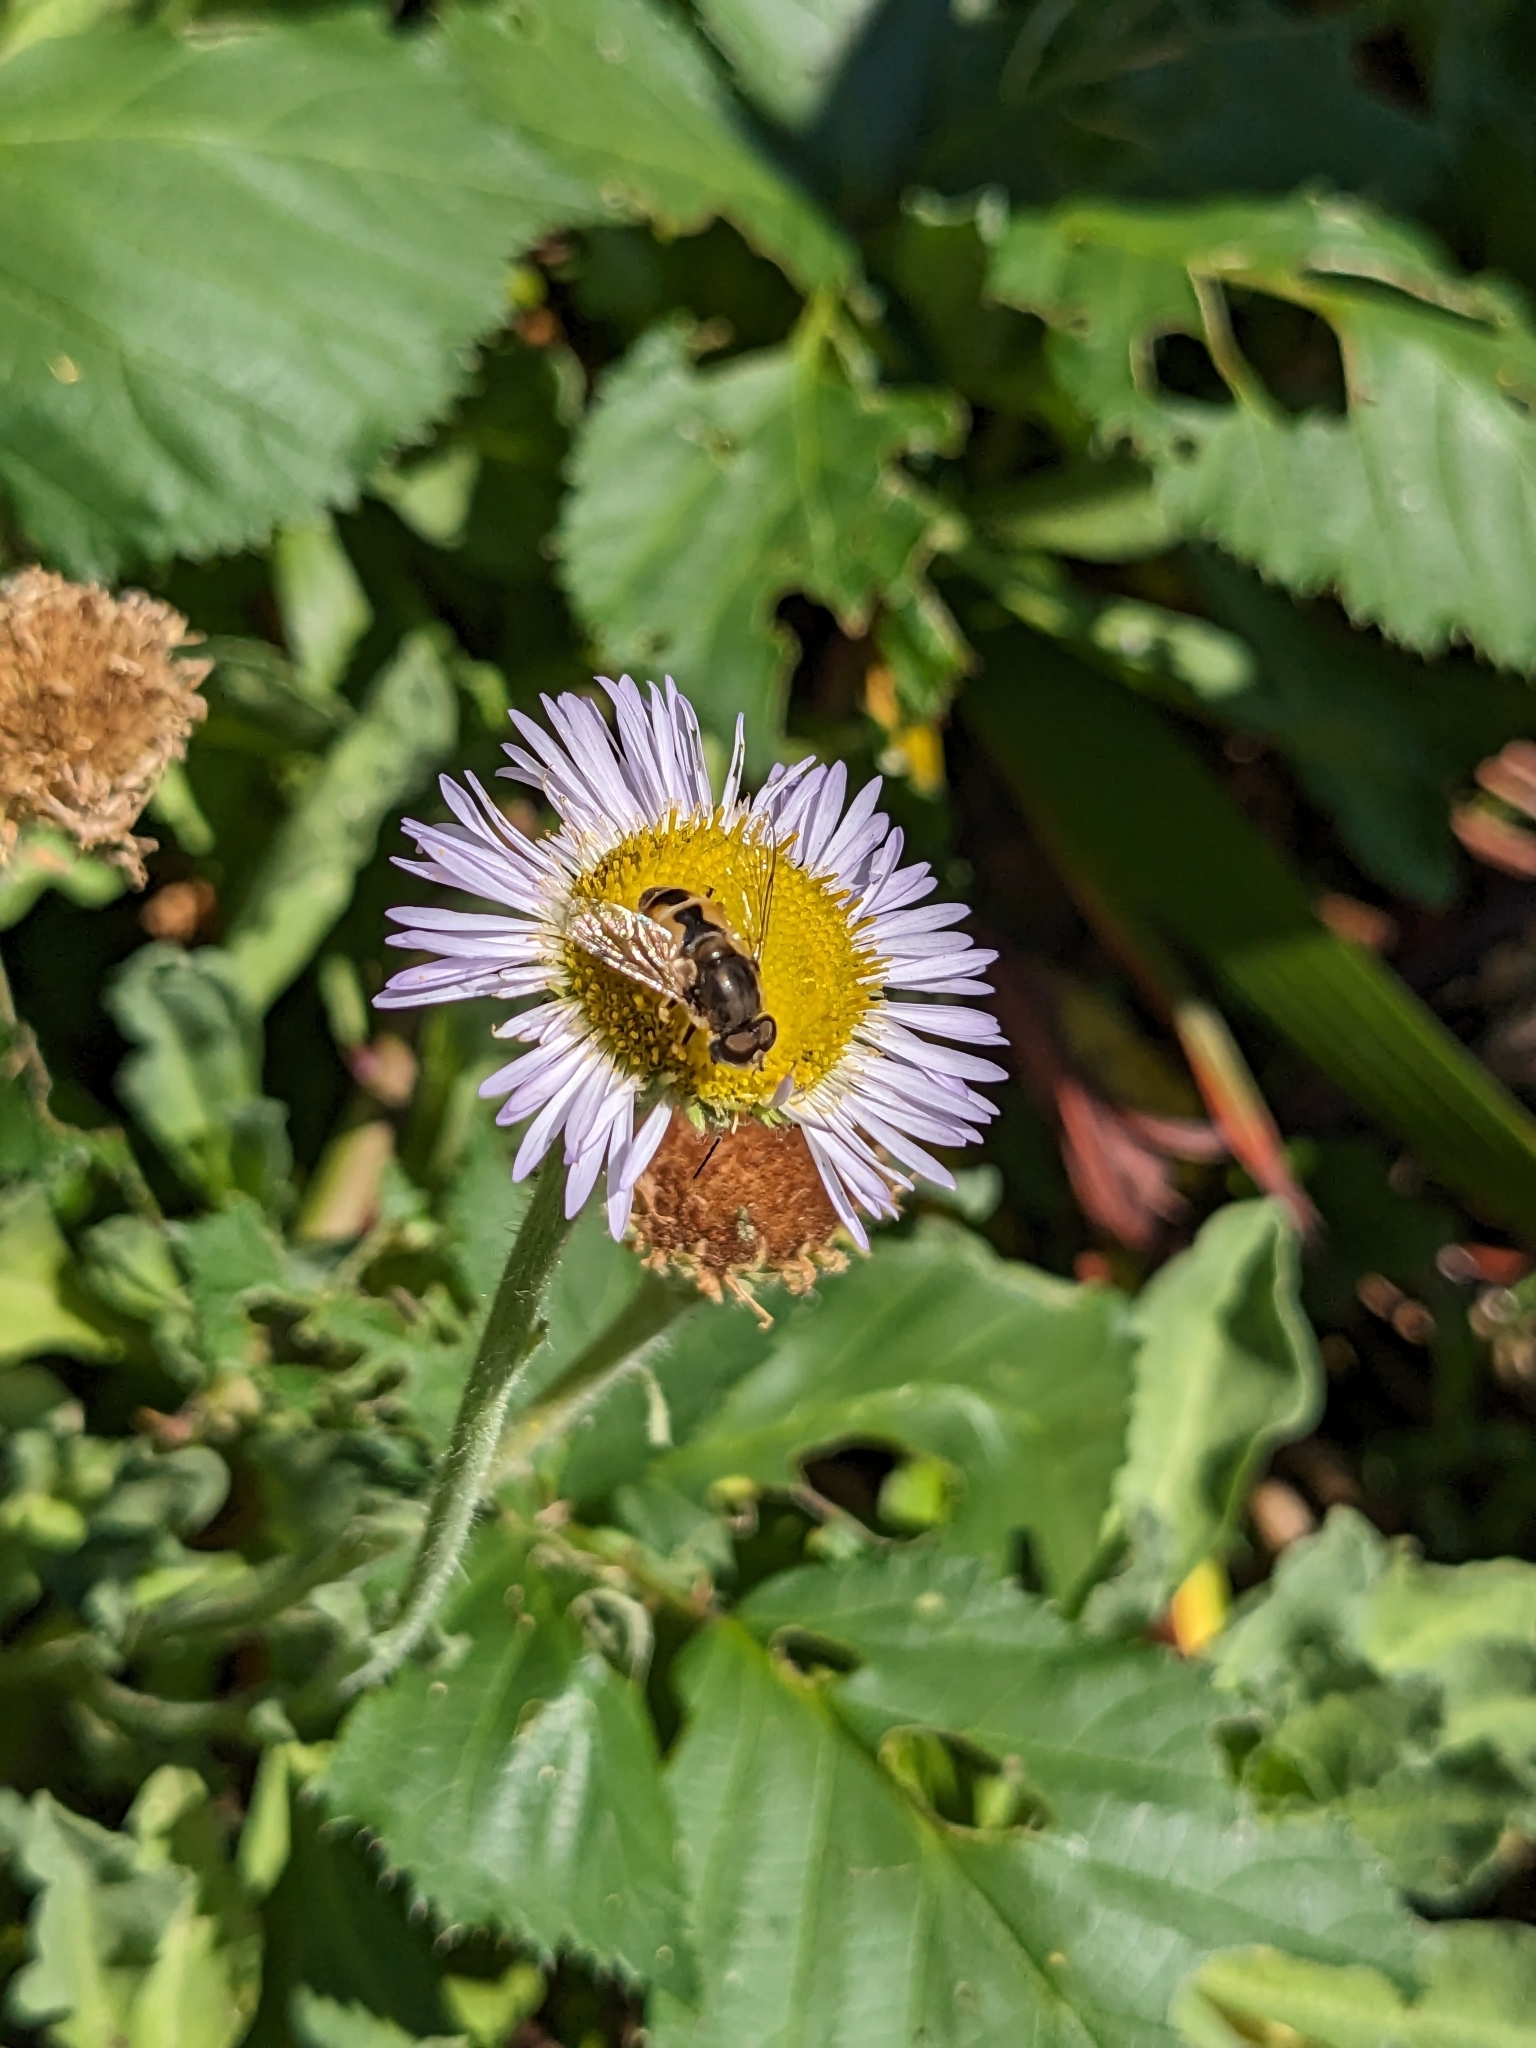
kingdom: Animalia
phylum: Arthropoda
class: Insecta
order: Diptera
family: Syrphidae
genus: Eristalis
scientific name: Eristalis arbustorum
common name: Hover fly
